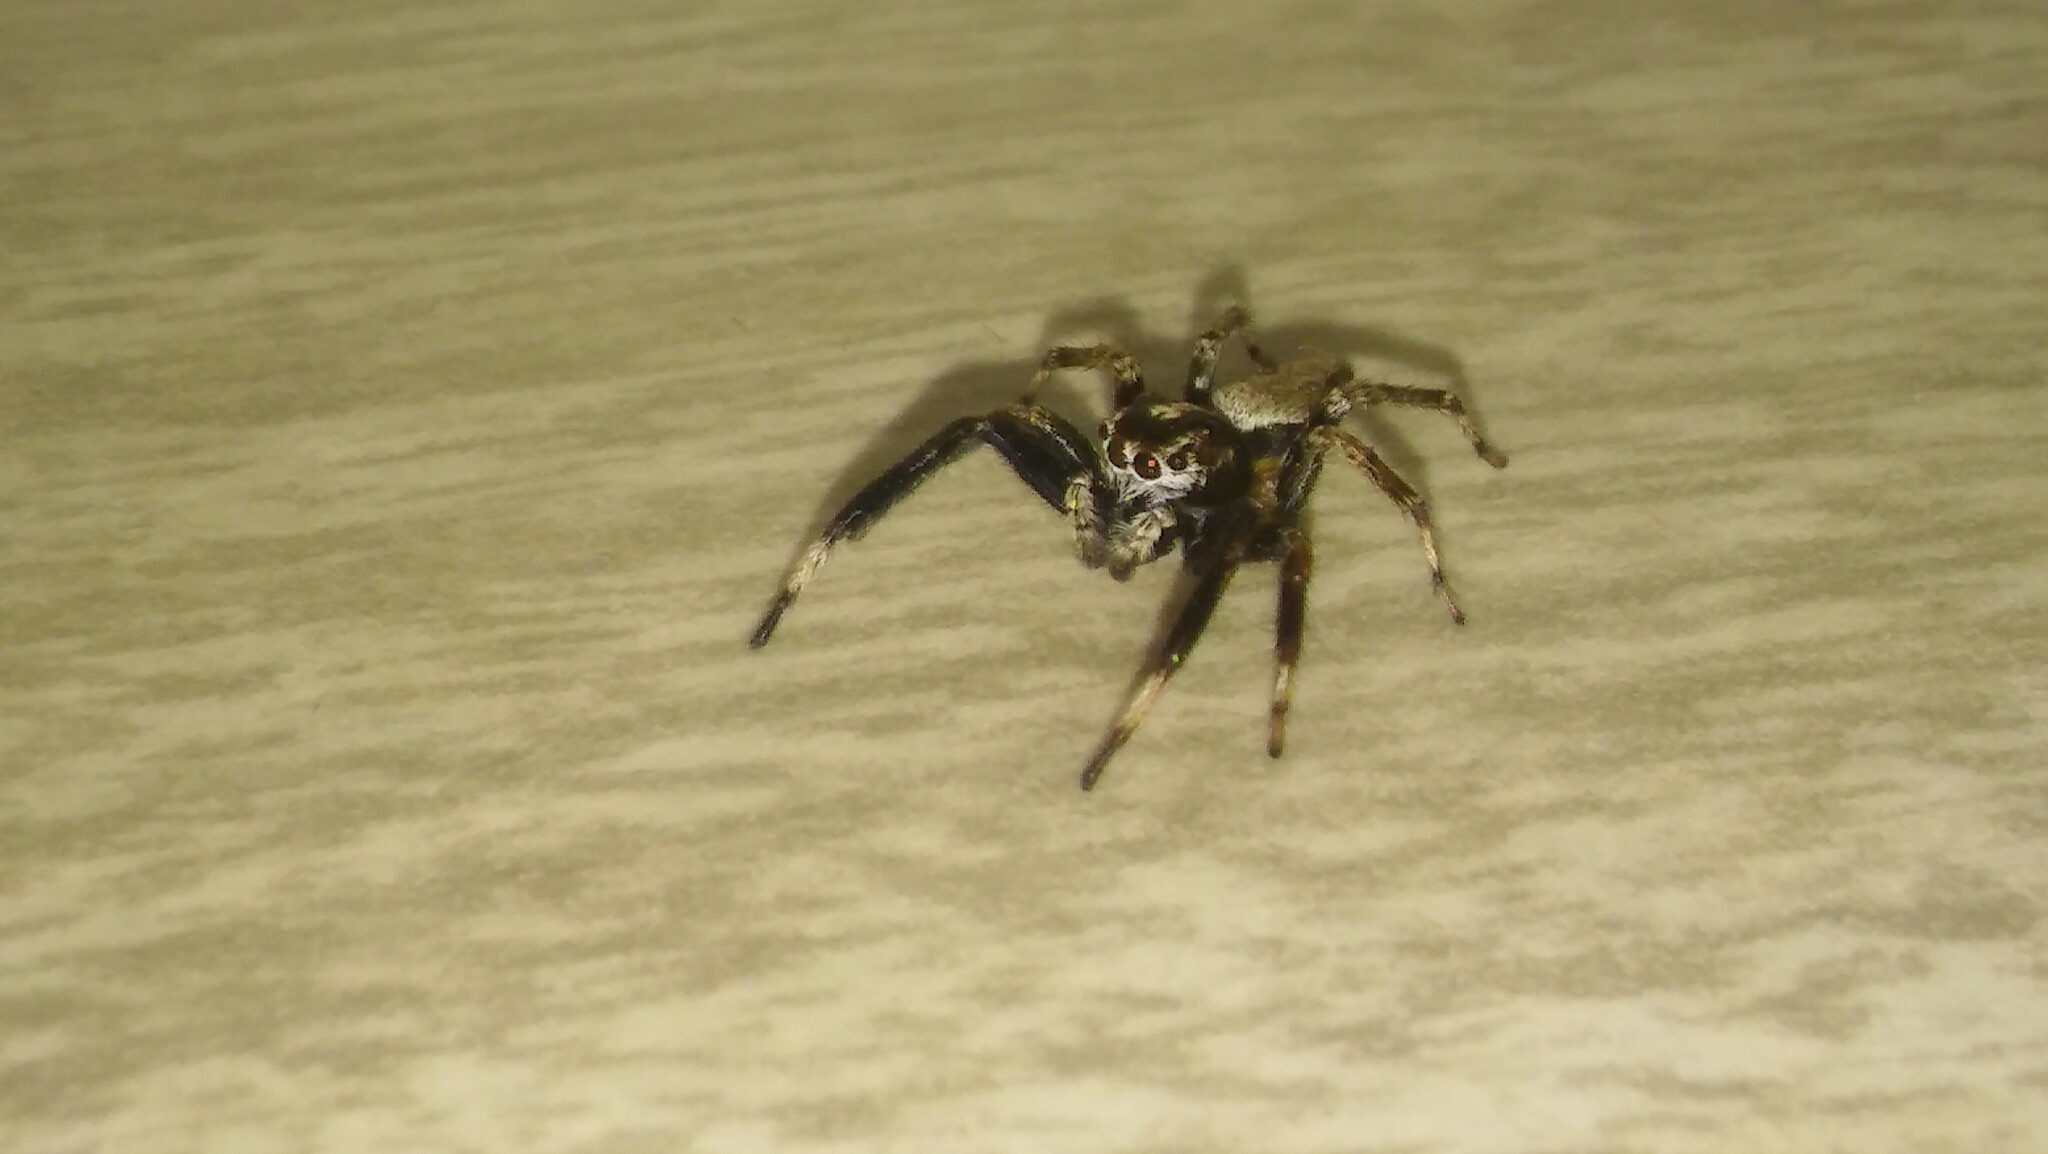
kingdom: Animalia
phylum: Arthropoda
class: Arachnida
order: Araneae
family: Salticidae
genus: Asaphobelis
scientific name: Asaphobelis physonychus
